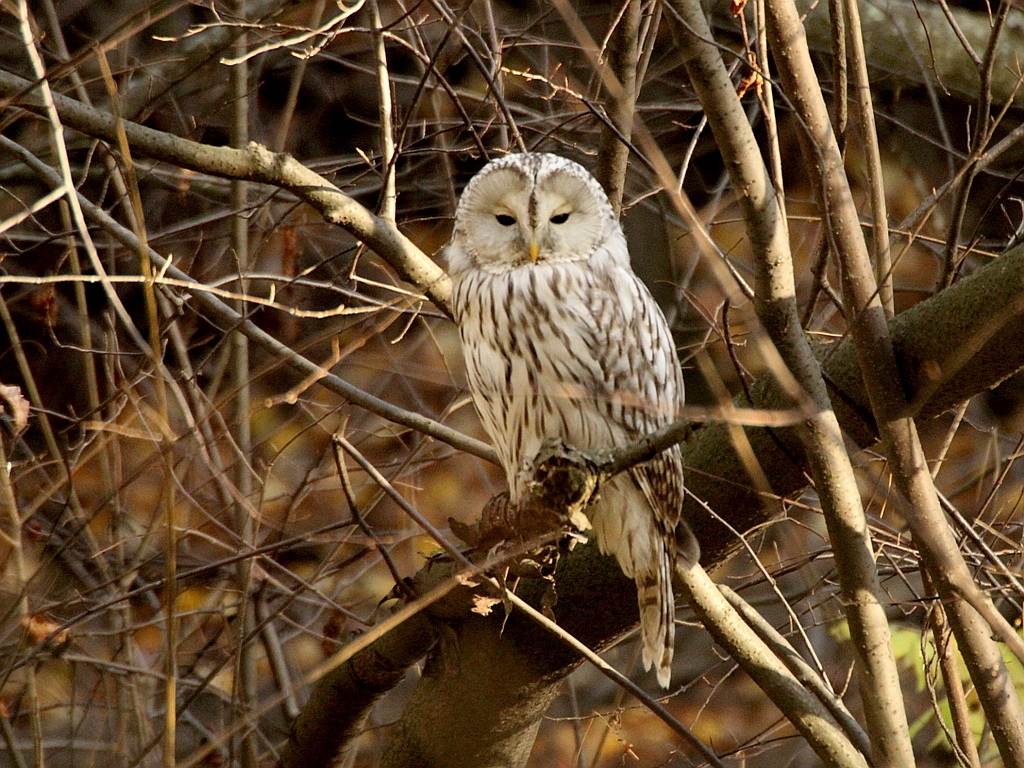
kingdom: Animalia
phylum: Chordata
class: Aves
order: Strigiformes
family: Strigidae
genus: Strix
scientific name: Strix uralensis
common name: Ural owl
